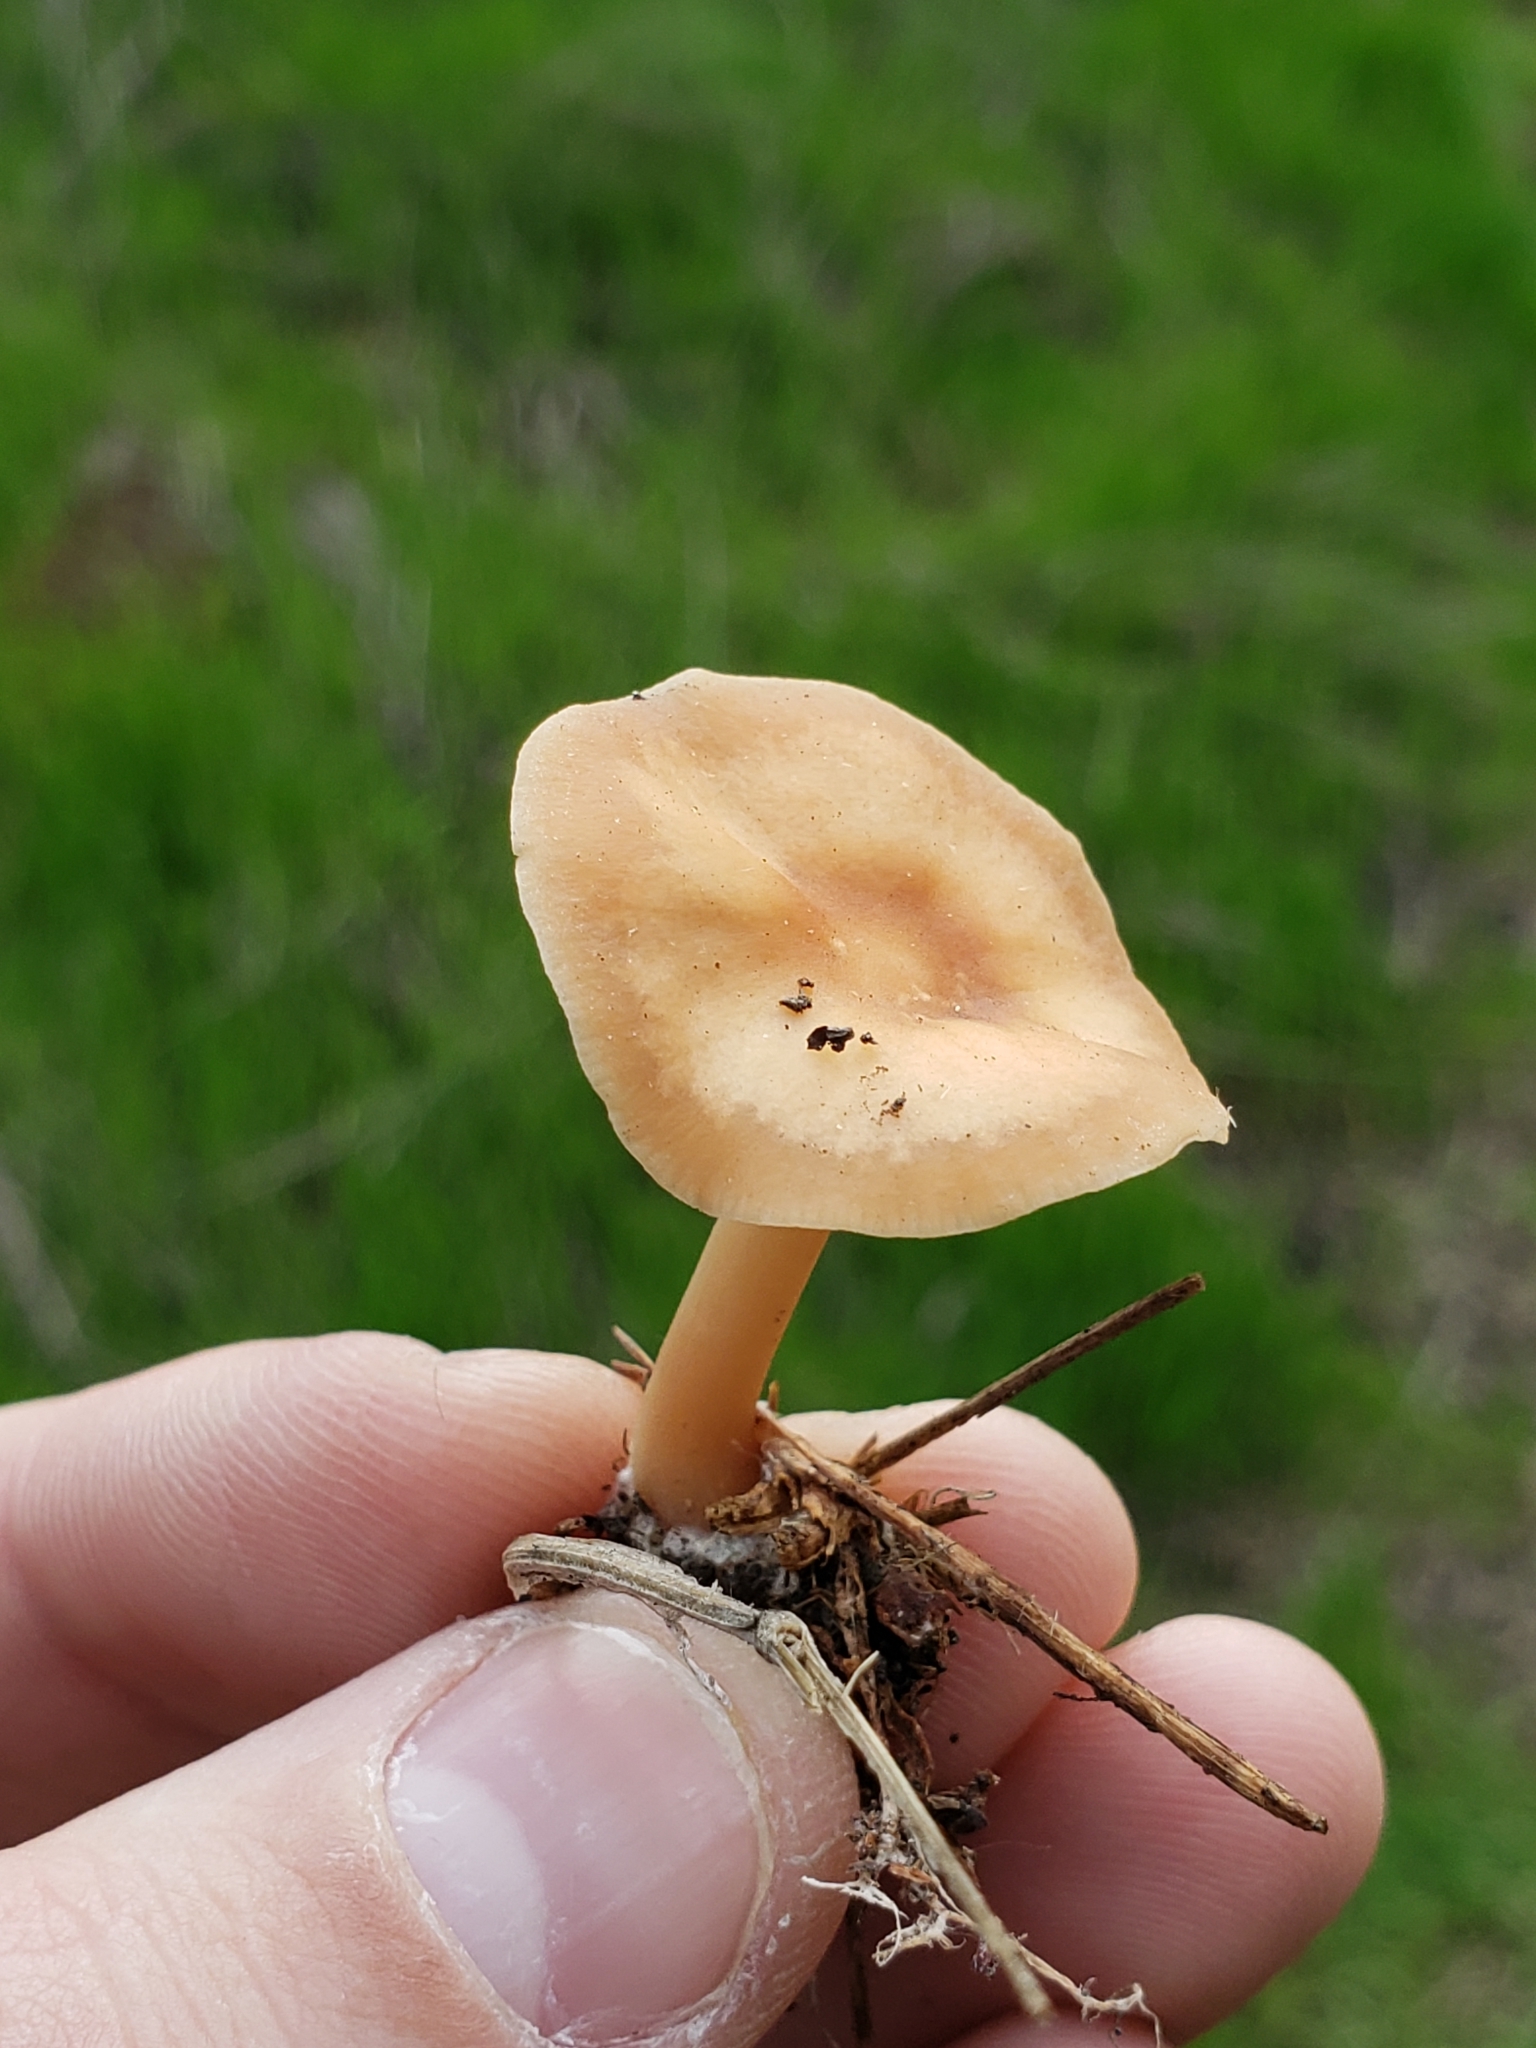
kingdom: Fungi
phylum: Basidiomycota
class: Agaricomycetes
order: Agaricales
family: Omphalotaceae
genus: Gymnopus
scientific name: Gymnopus dryophilus
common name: Penny top
